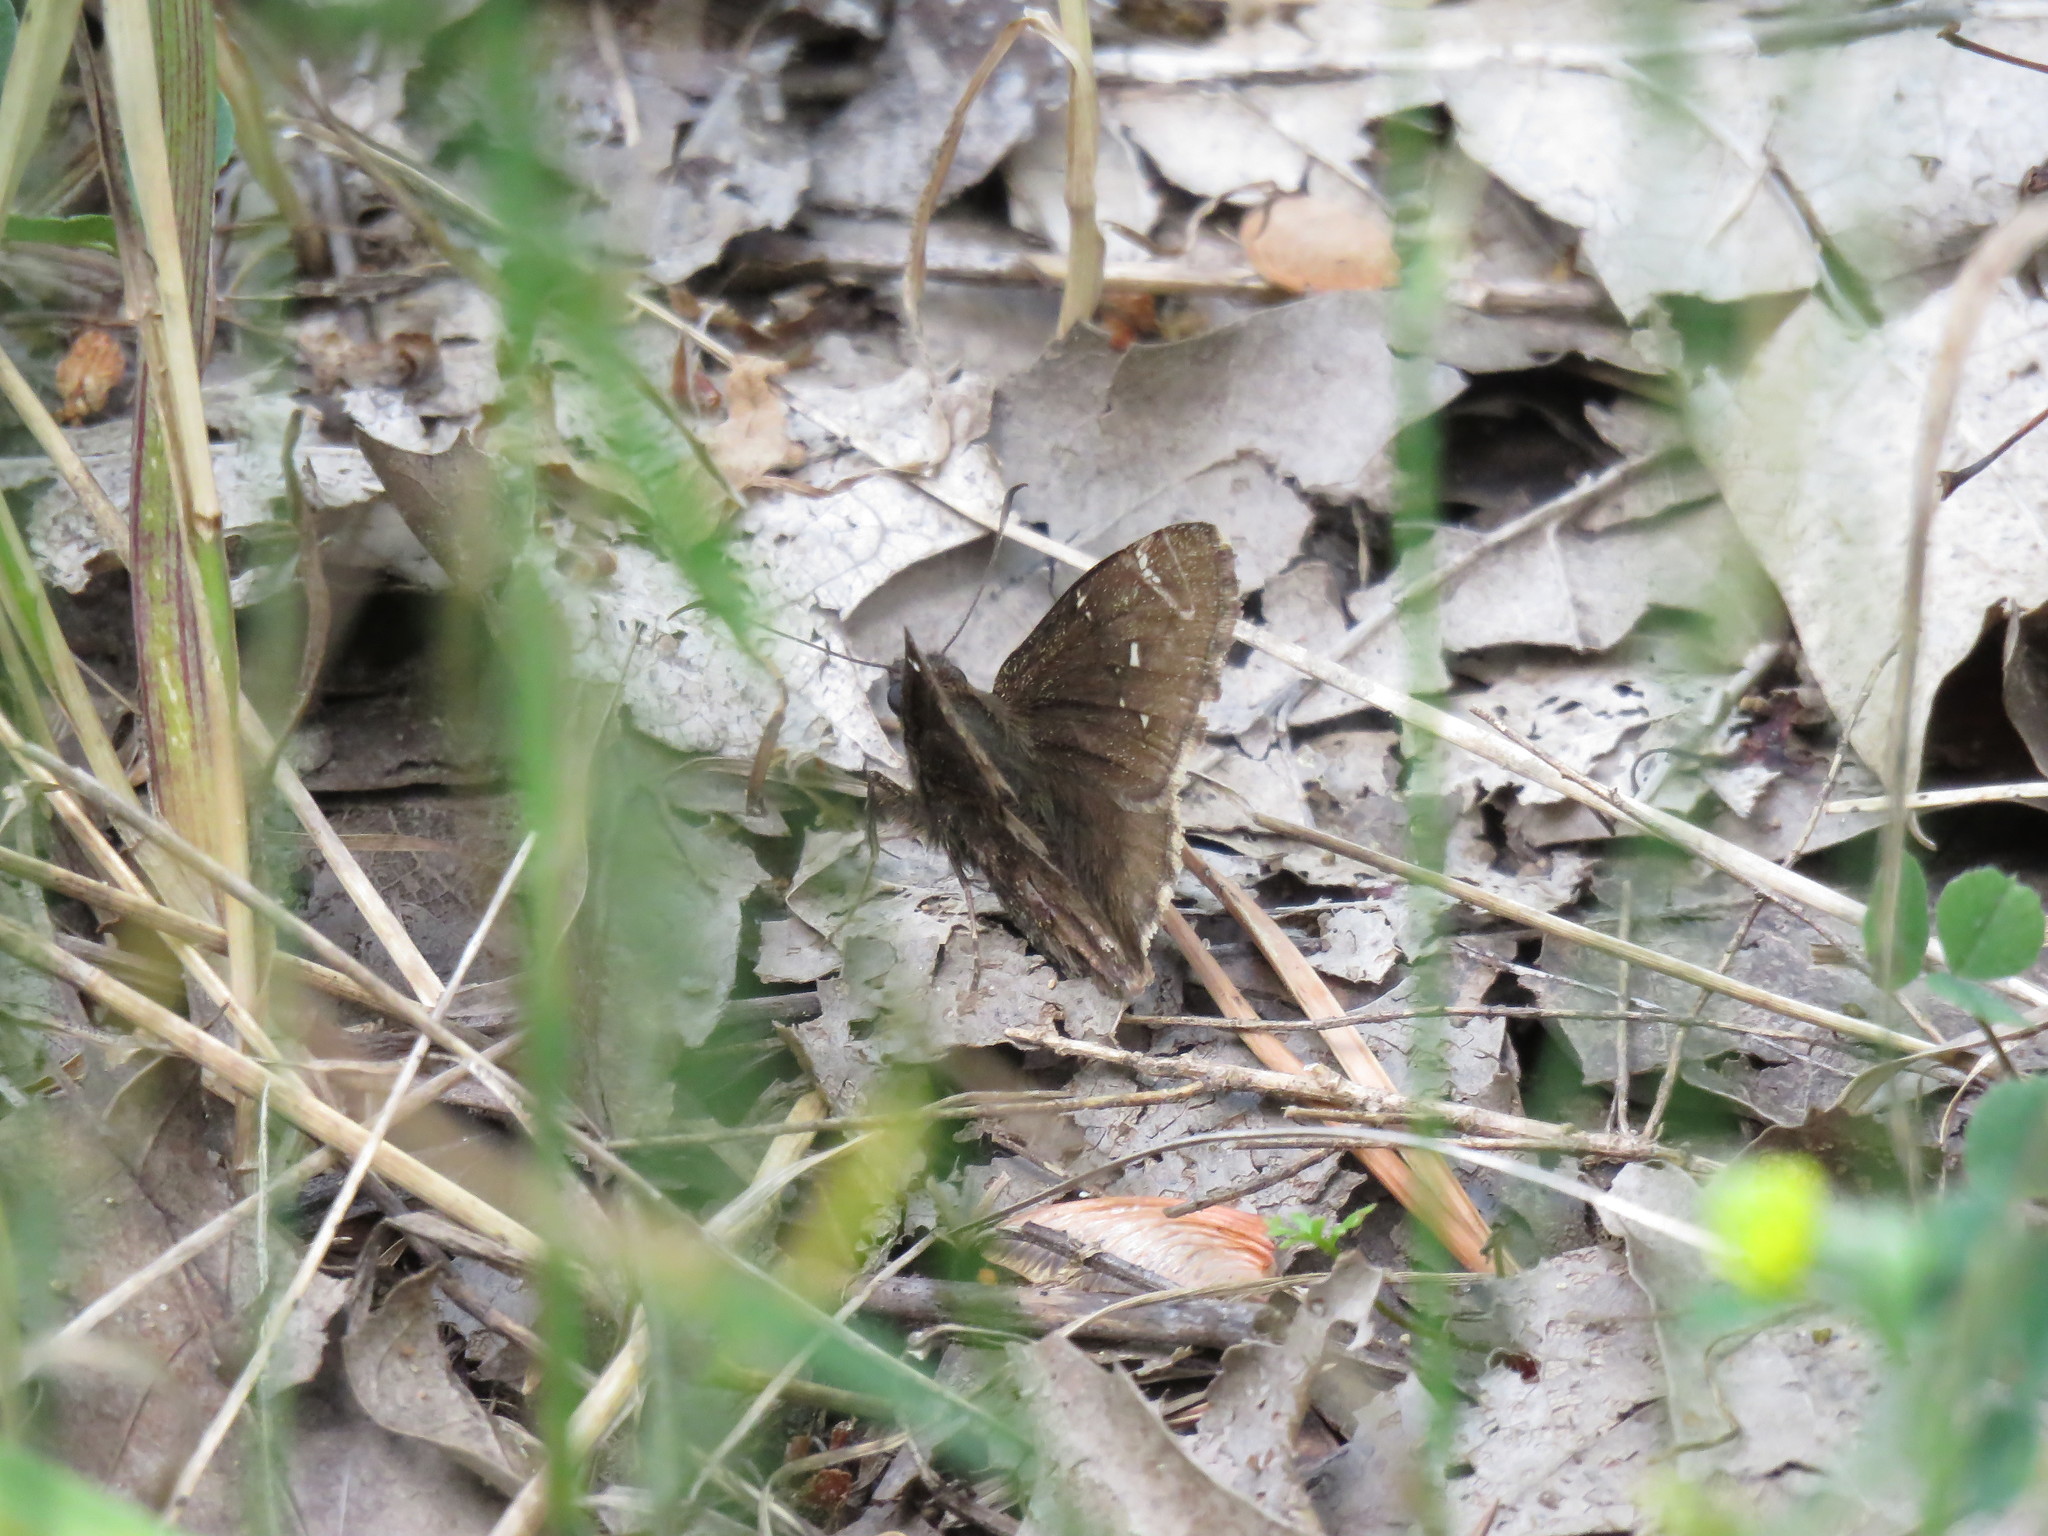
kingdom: Animalia
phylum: Arthropoda
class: Insecta
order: Lepidoptera
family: Hesperiidae
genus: Thorybes
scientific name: Thorybes pylades
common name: Northern cloudywing
